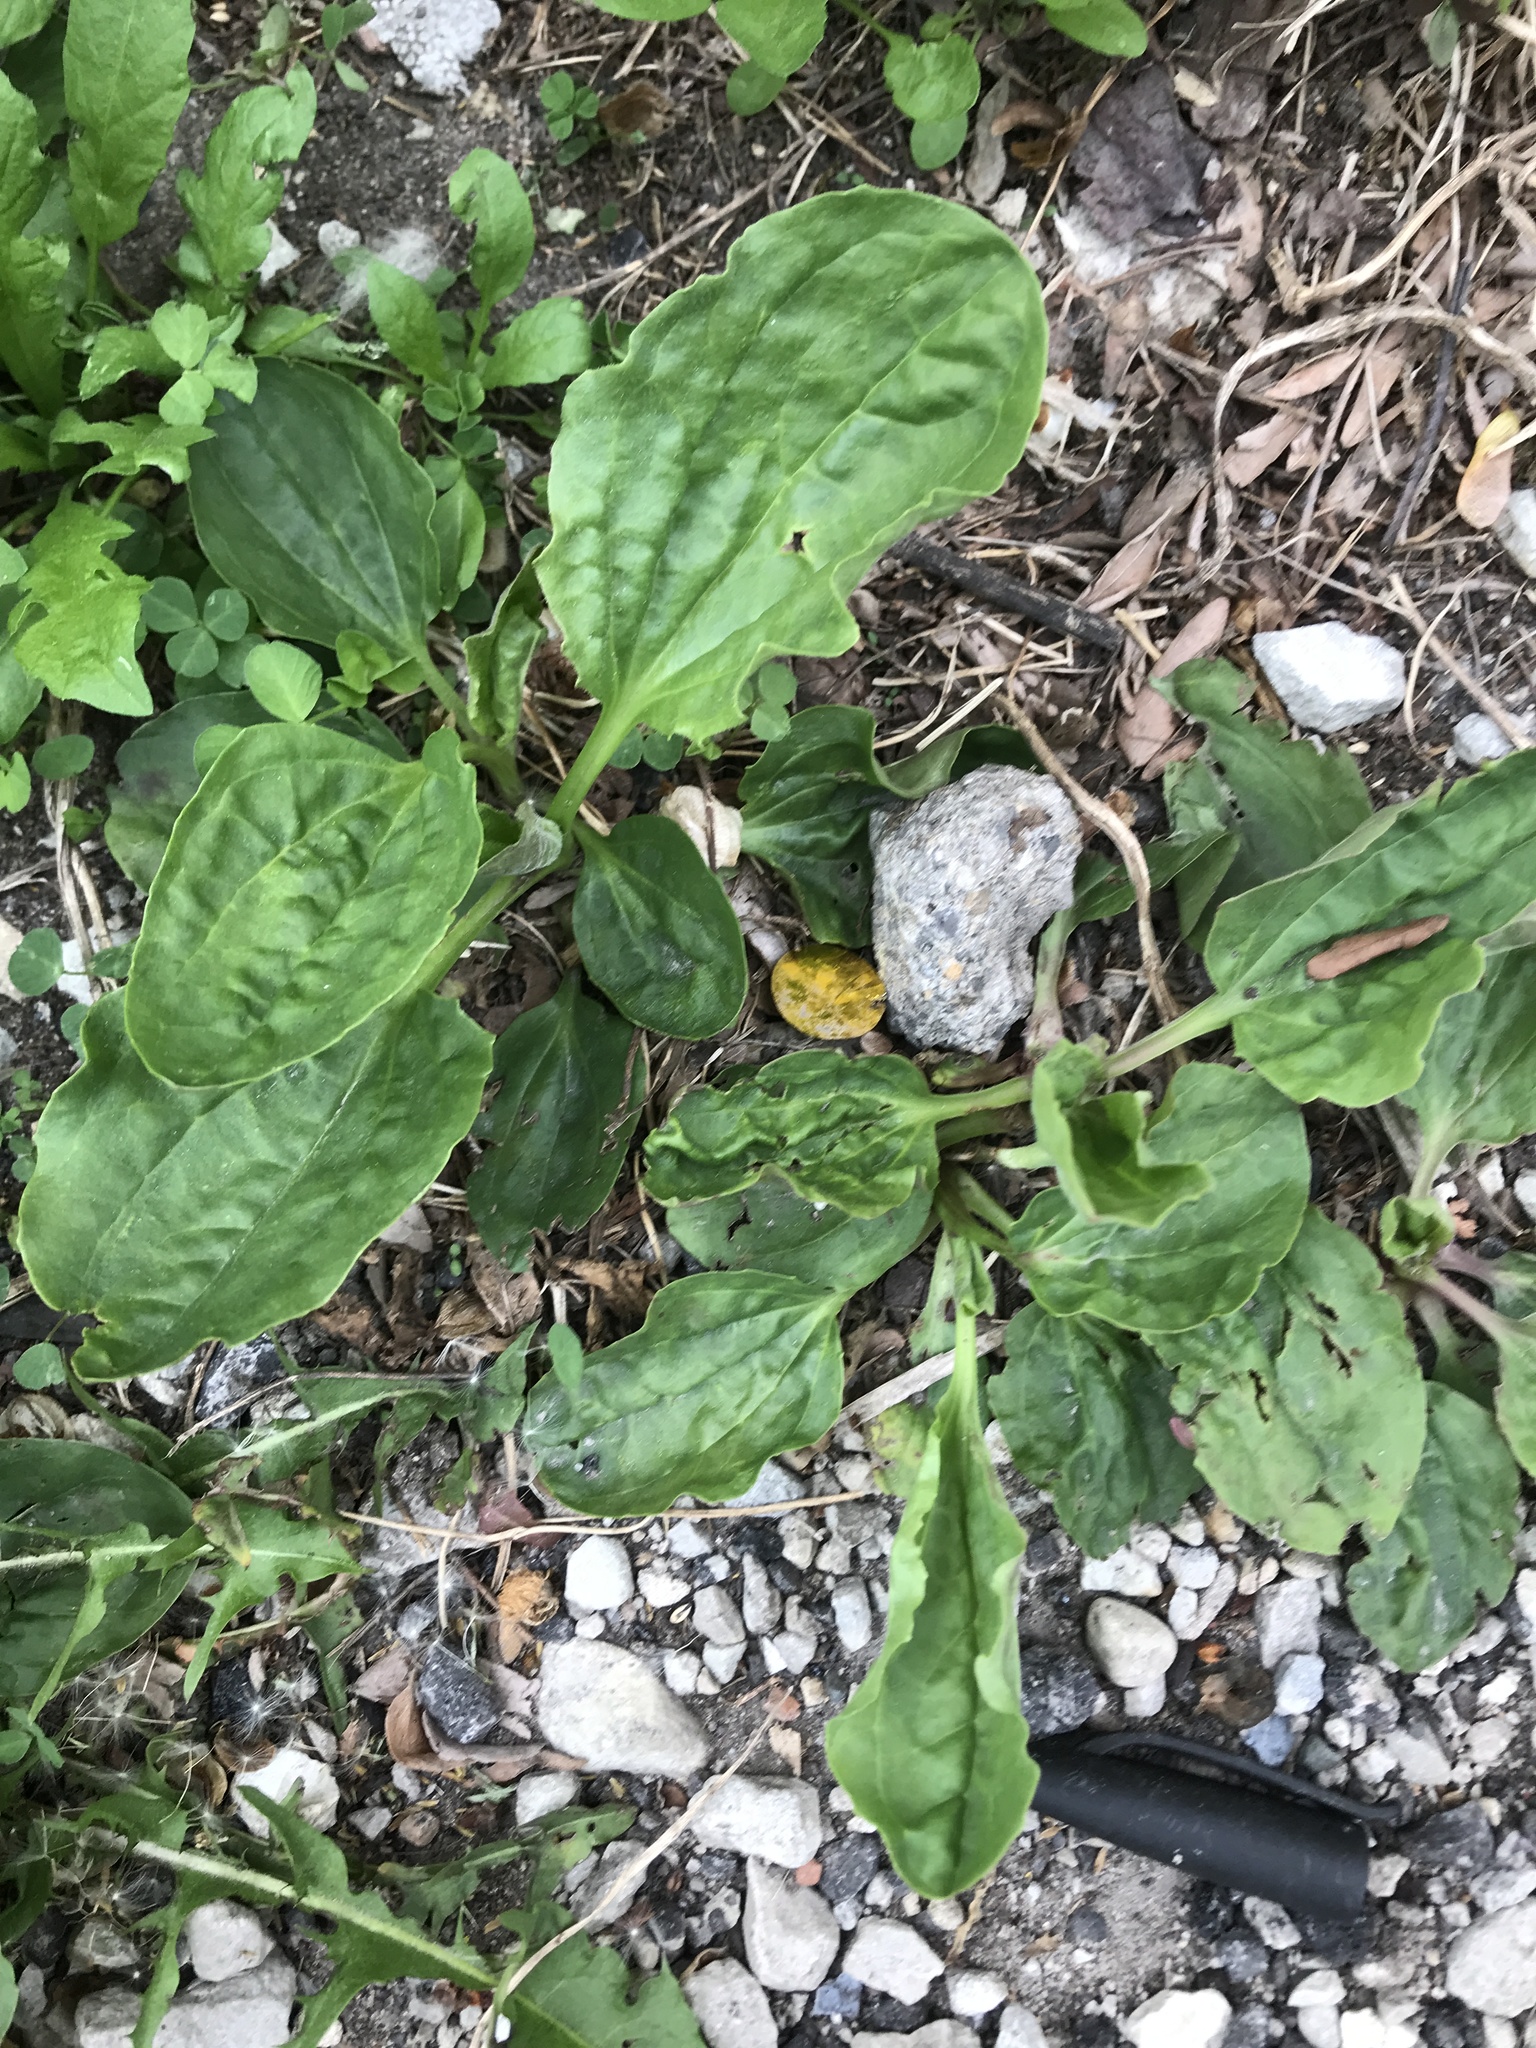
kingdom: Plantae
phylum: Tracheophyta
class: Magnoliopsida
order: Lamiales
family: Plantaginaceae
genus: Plantago
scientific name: Plantago major
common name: Common plantain
